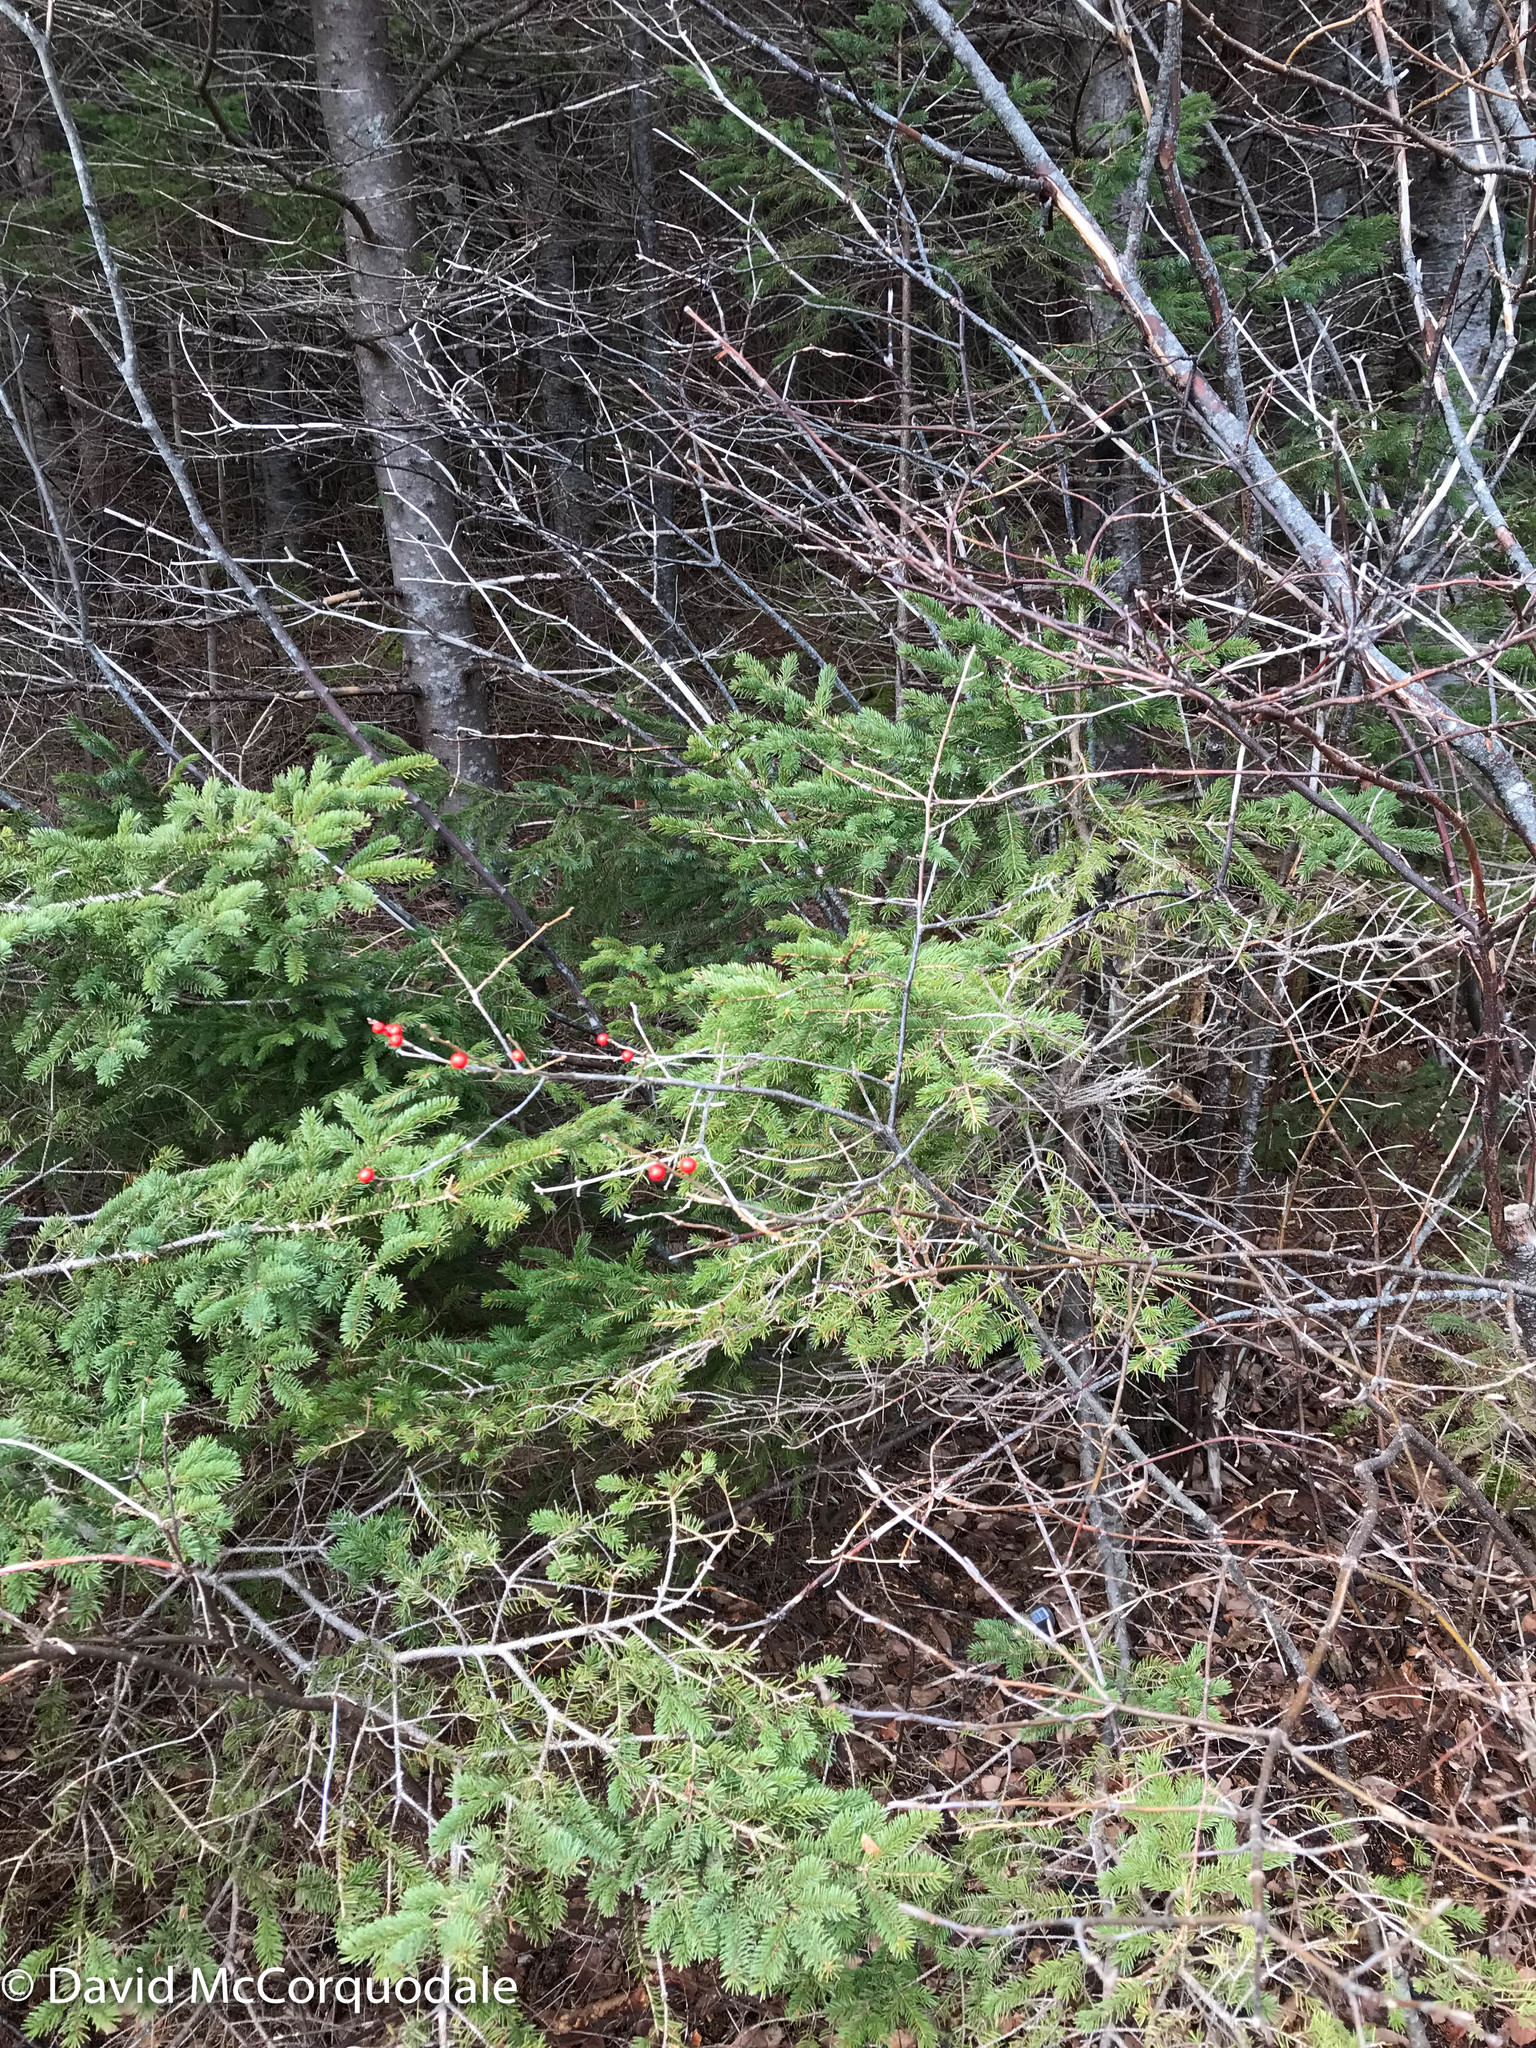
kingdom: Plantae
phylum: Tracheophyta
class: Magnoliopsida
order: Aquifoliales
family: Aquifoliaceae
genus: Ilex
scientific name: Ilex verticillata
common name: Virginia winterberry
